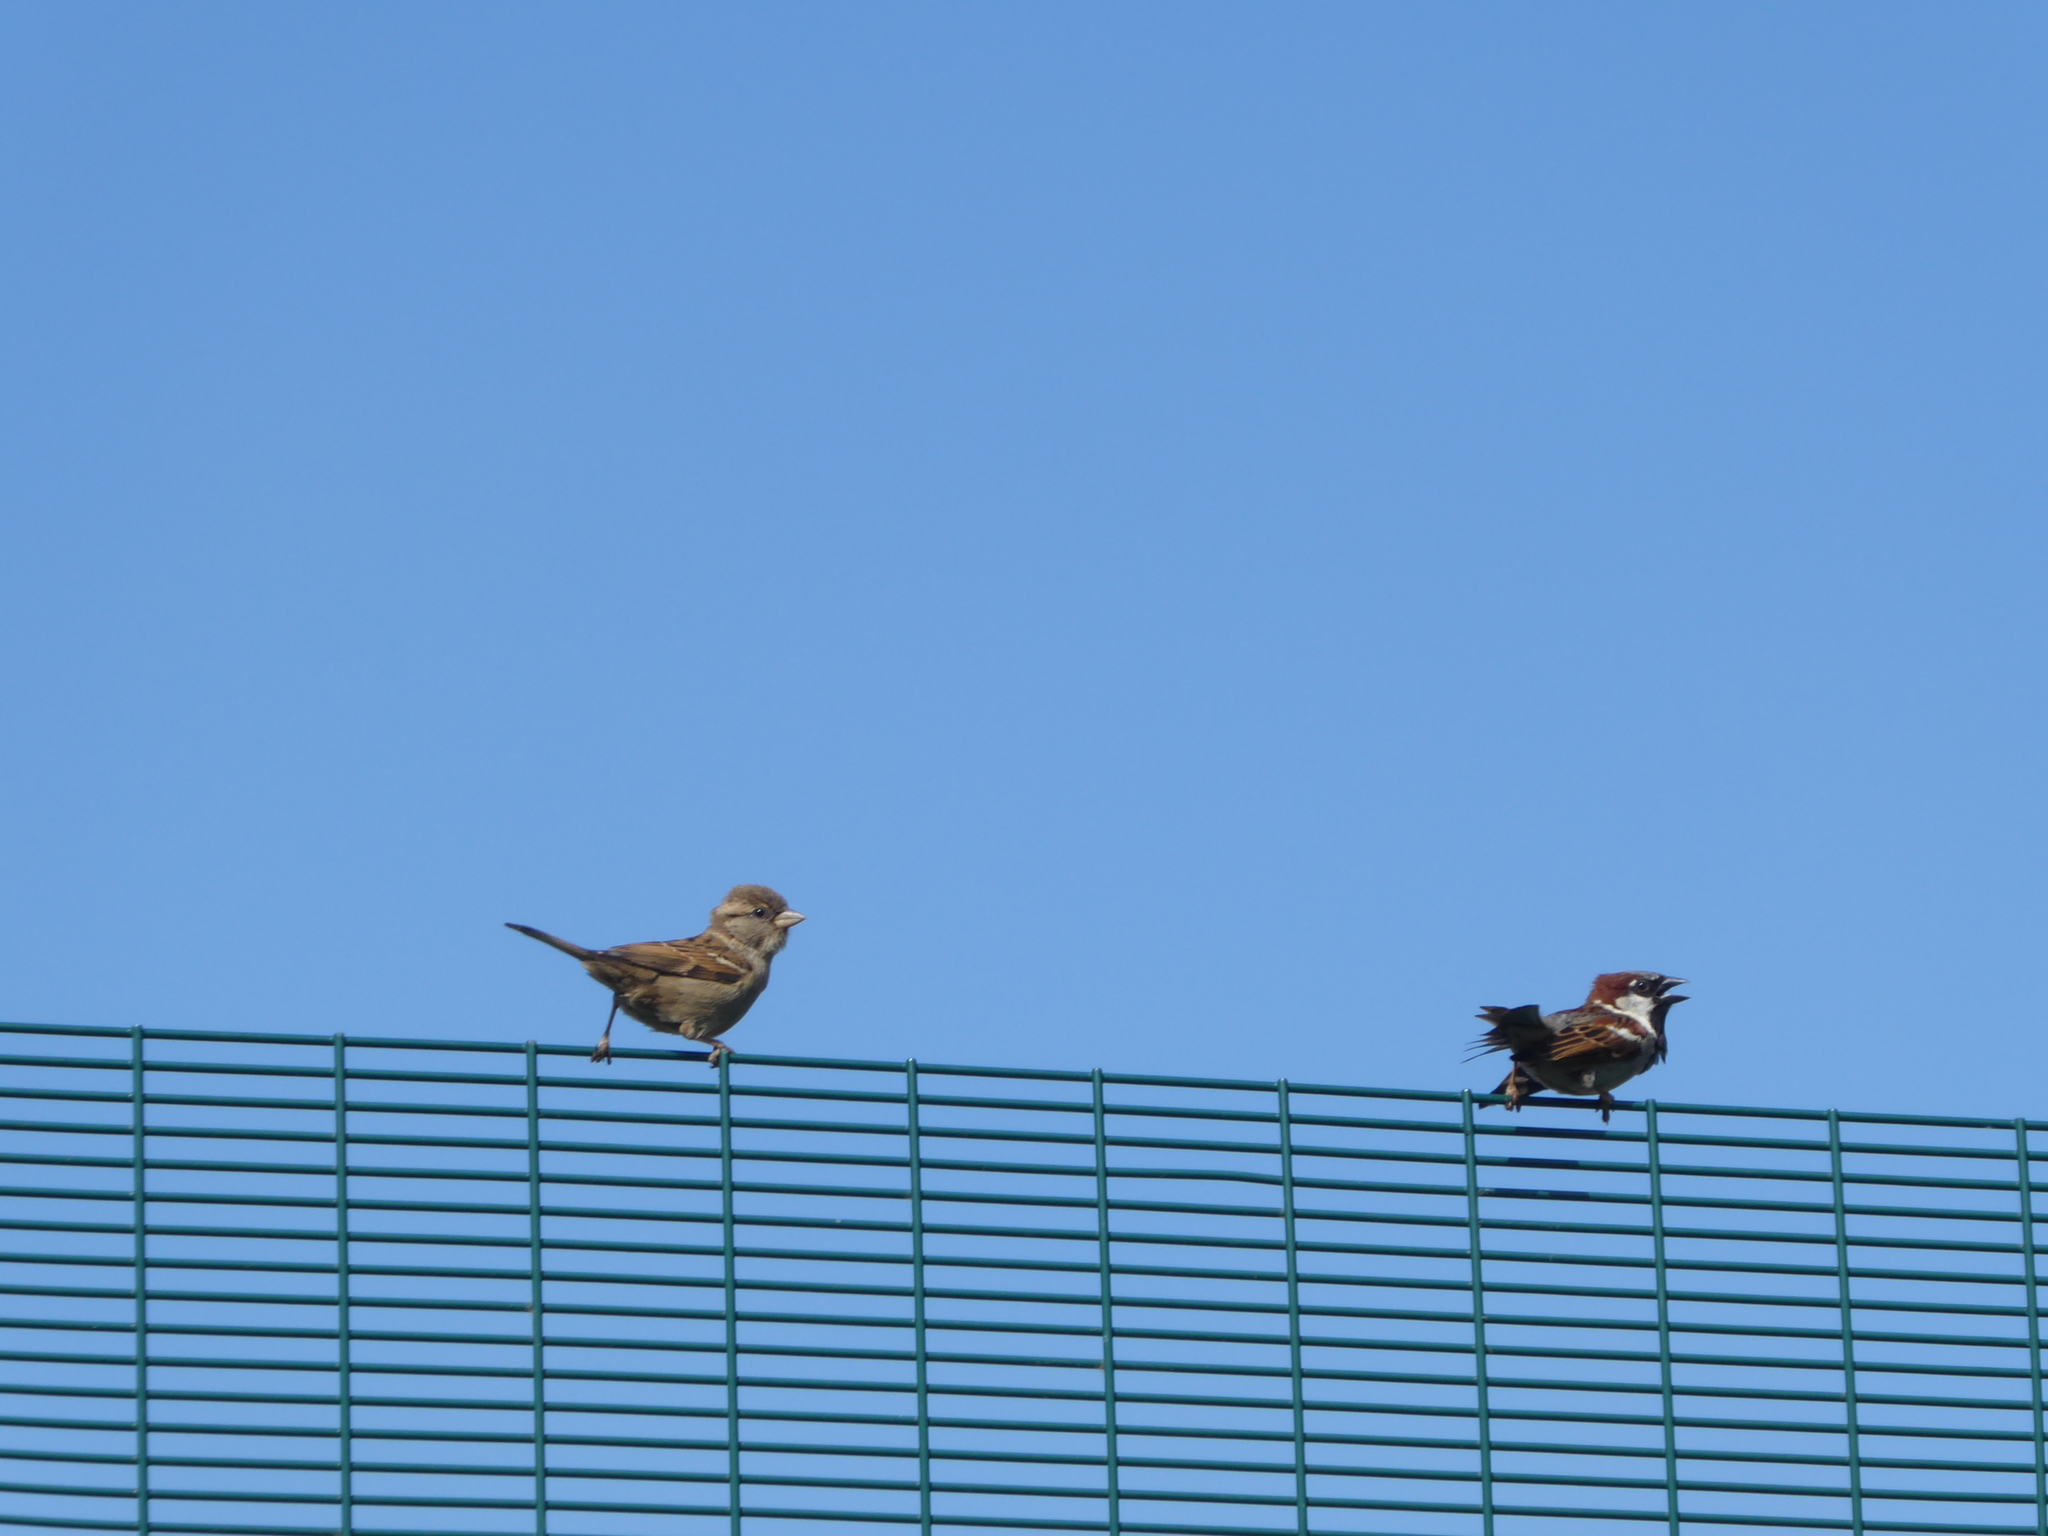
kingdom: Animalia
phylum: Chordata
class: Aves
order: Passeriformes
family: Passeridae
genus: Passer
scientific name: Passer domesticus
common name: House sparrow
